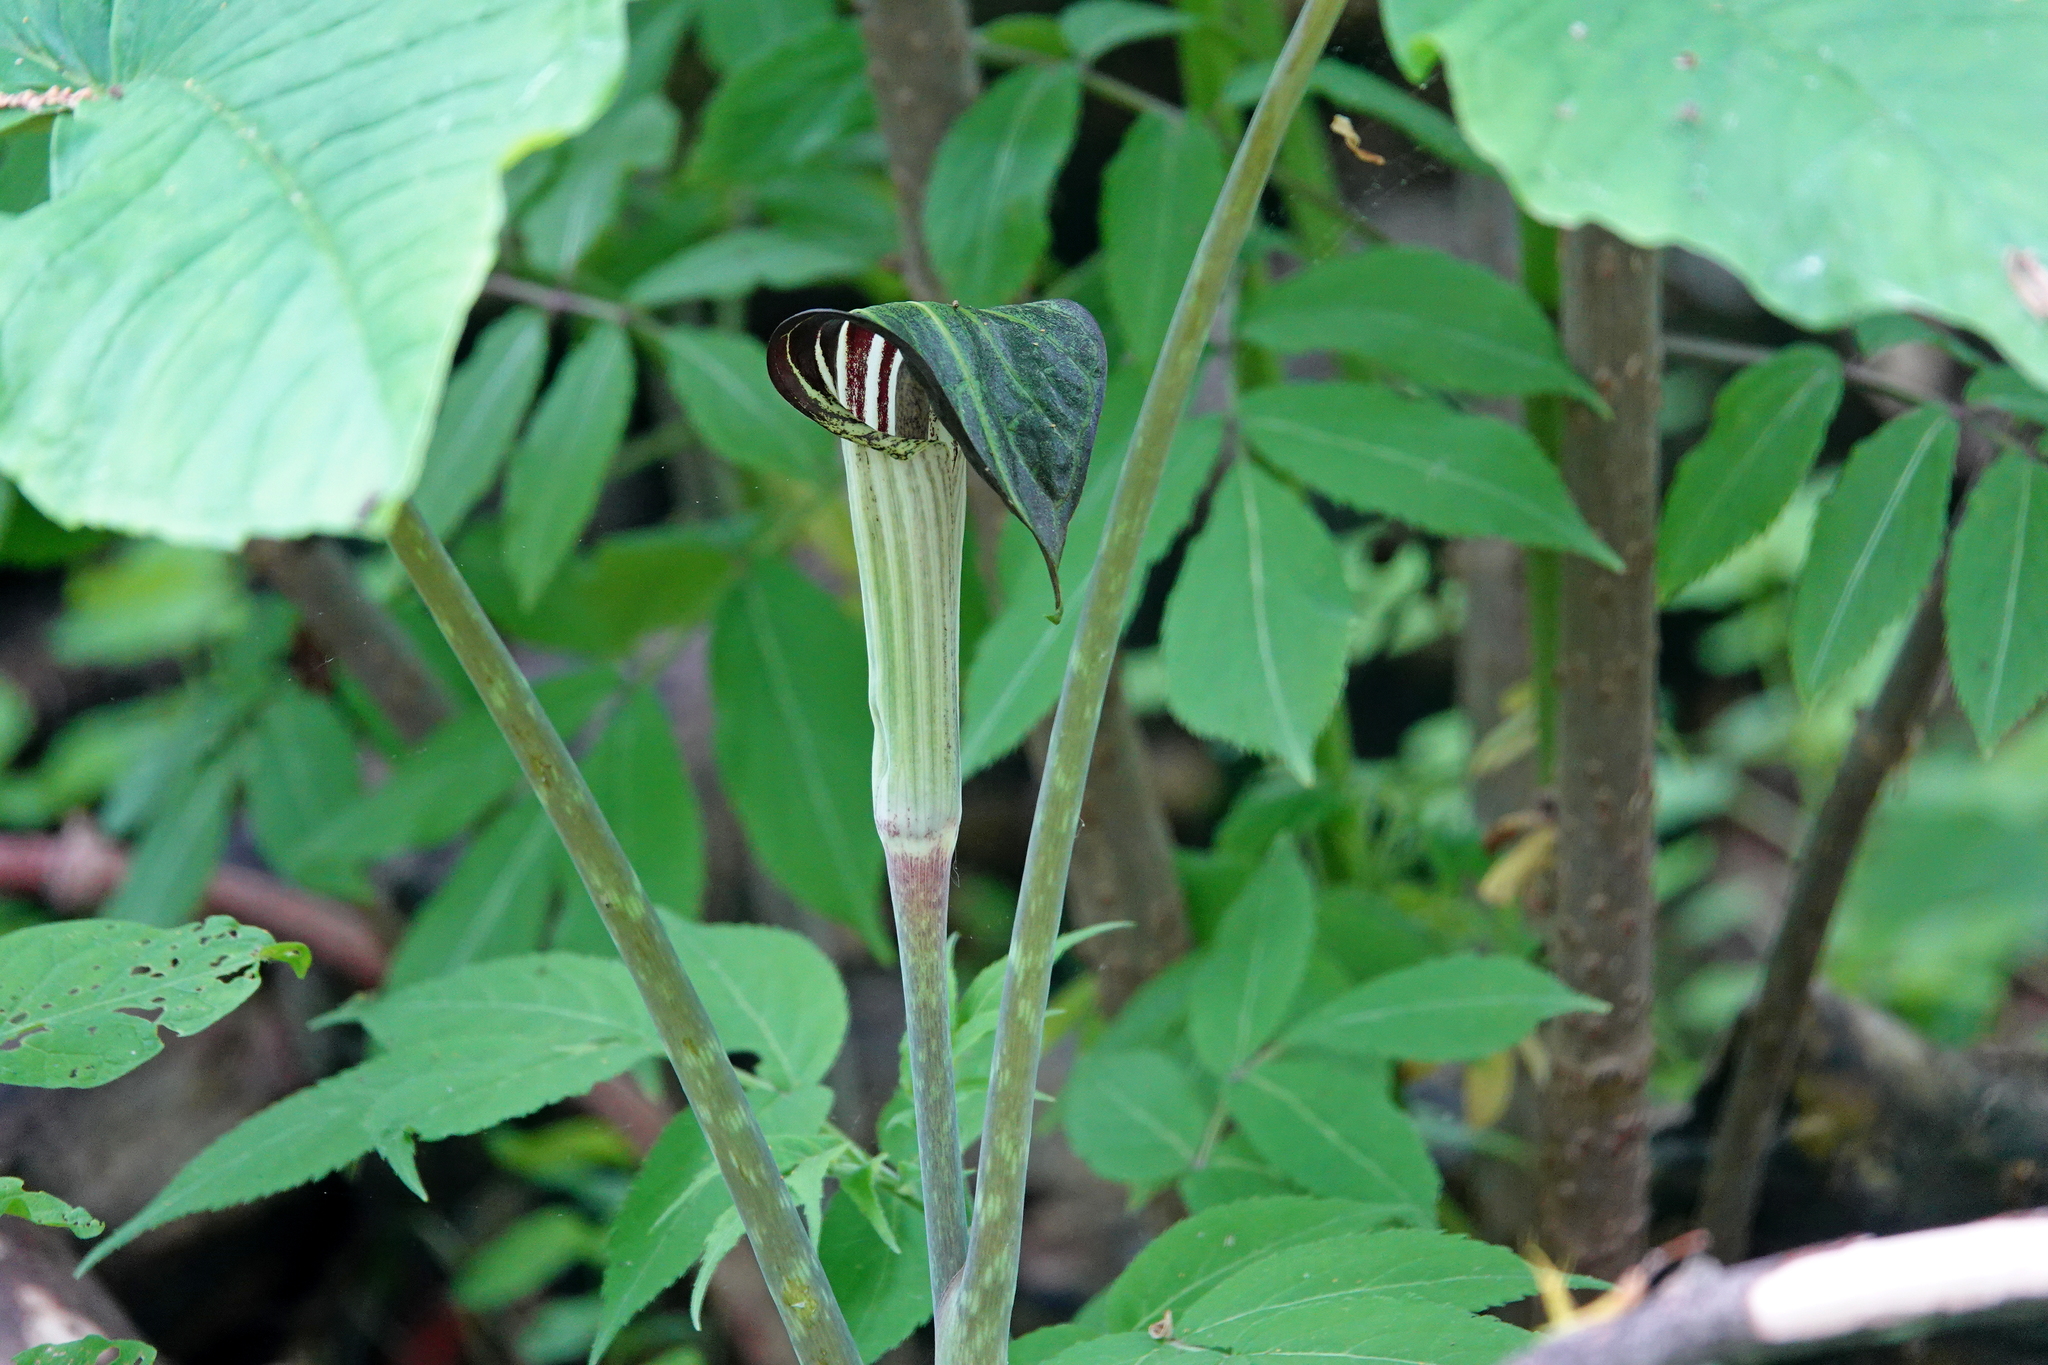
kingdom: Plantae
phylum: Tracheophyta
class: Liliopsida
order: Alismatales
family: Araceae
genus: Arisaema
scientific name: Arisaema triphyllum
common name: Jack-in-the-pulpit
